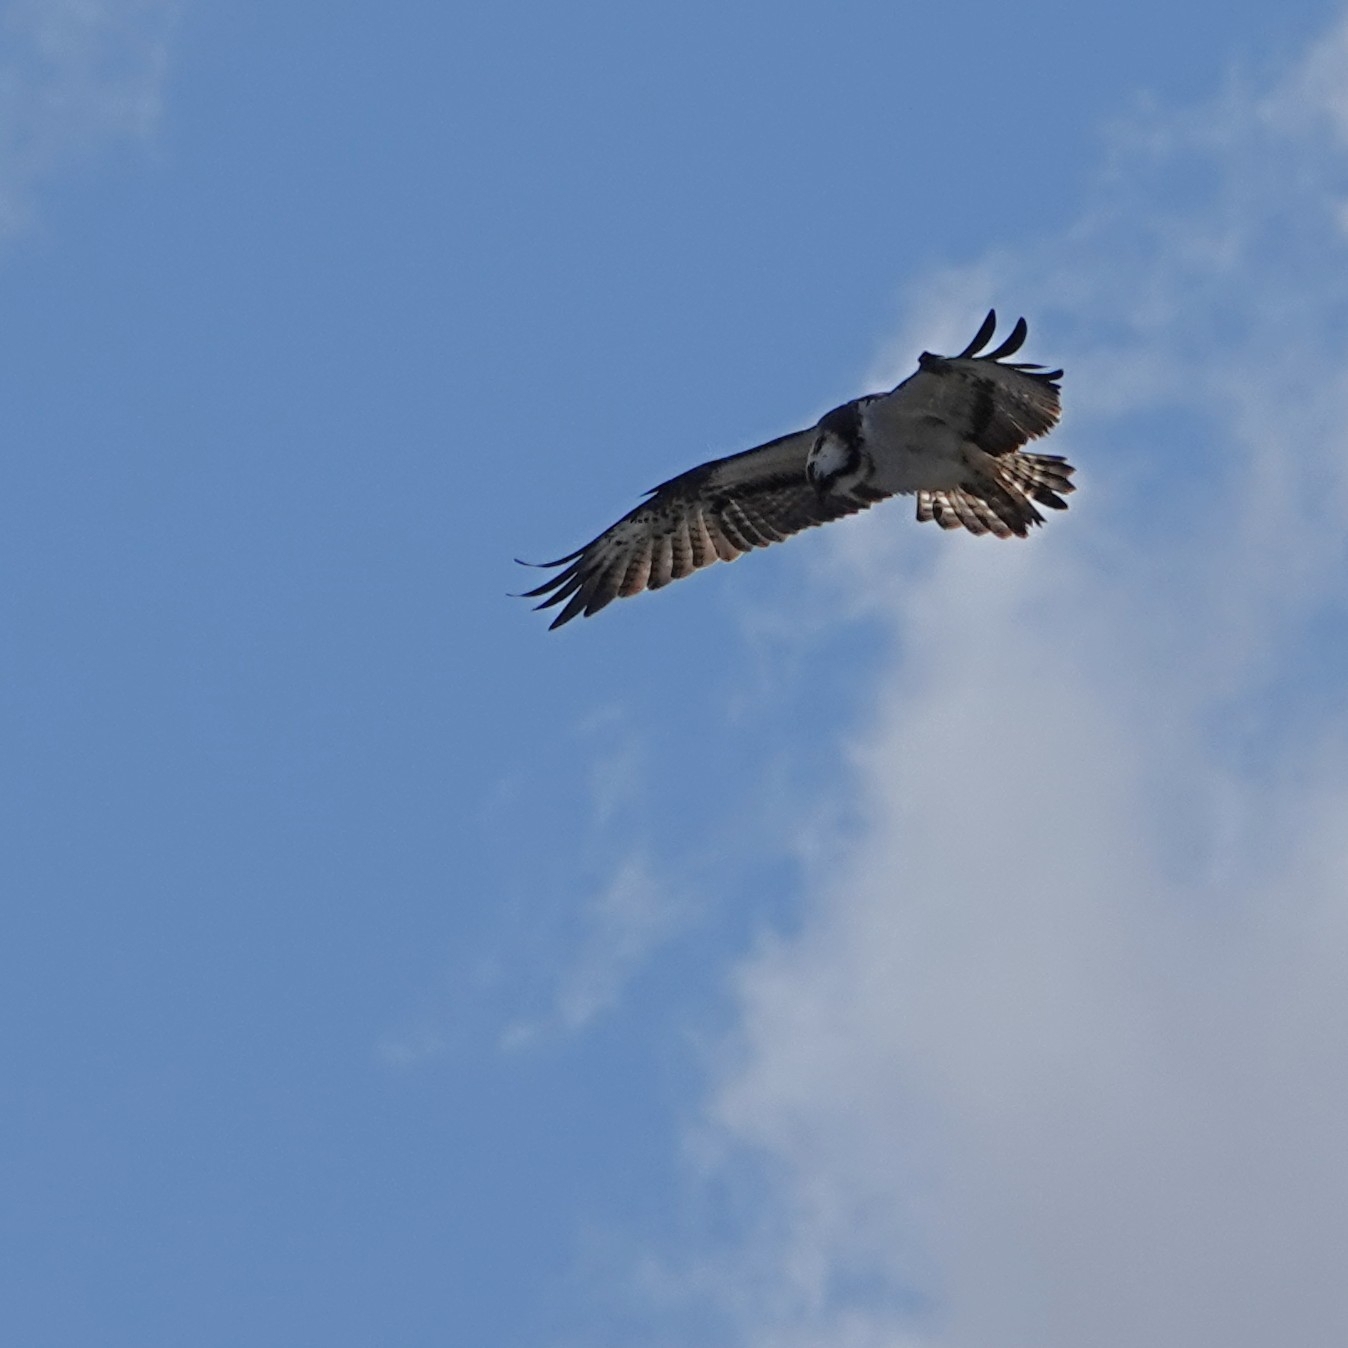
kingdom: Animalia
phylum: Chordata
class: Aves
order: Accipitriformes
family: Pandionidae
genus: Pandion
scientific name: Pandion haliaetus
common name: Osprey
